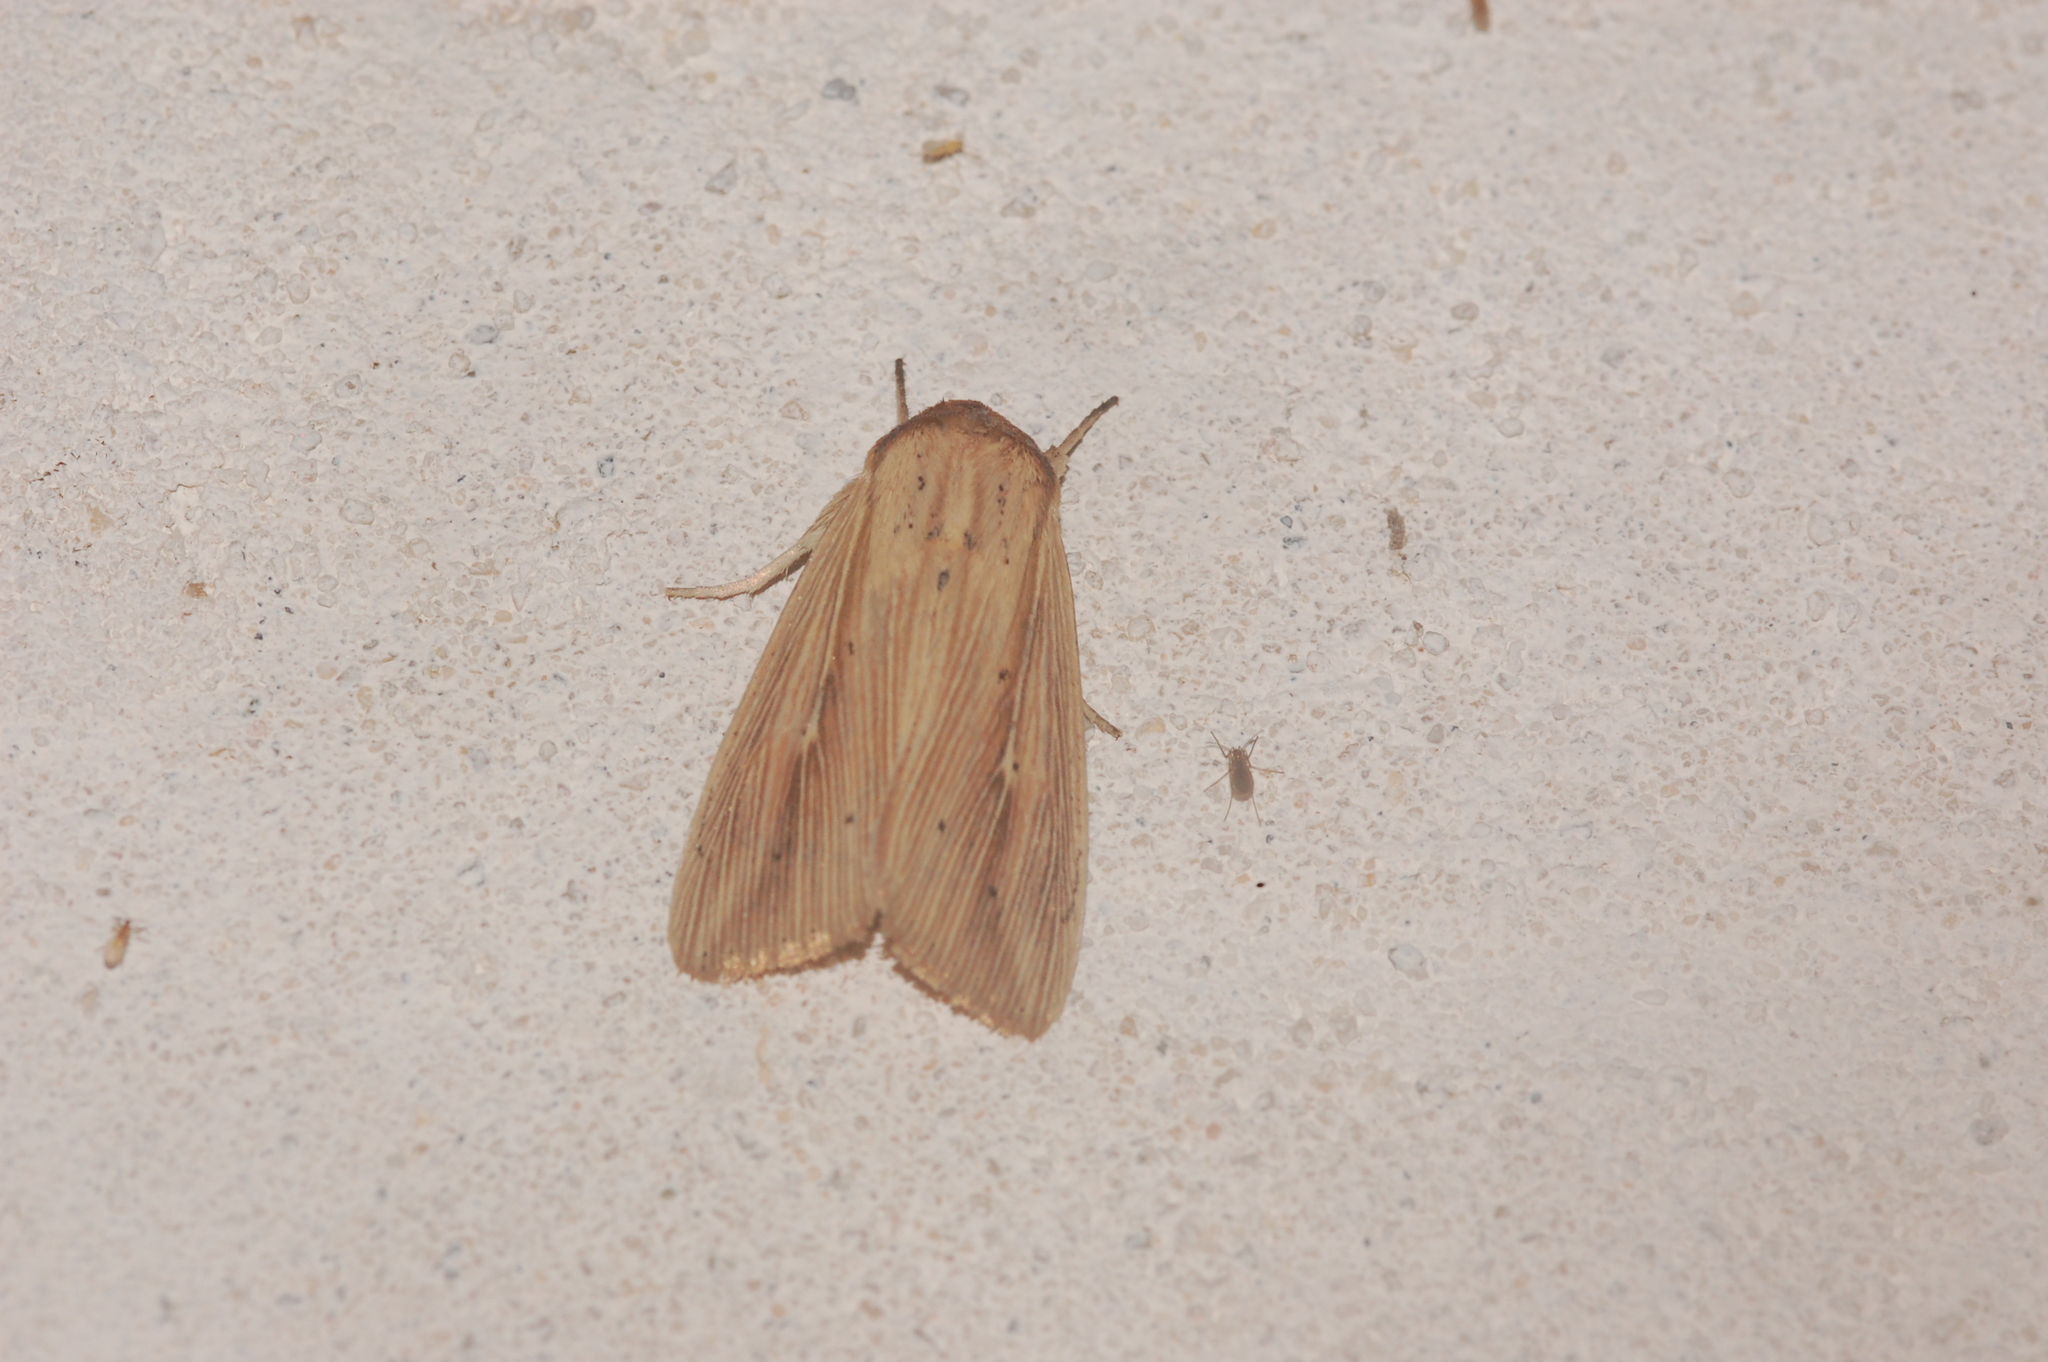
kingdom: Animalia
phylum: Arthropoda
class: Insecta
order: Lepidoptera
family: Noctuidae
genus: Leucania
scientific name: Leucania adjuta
